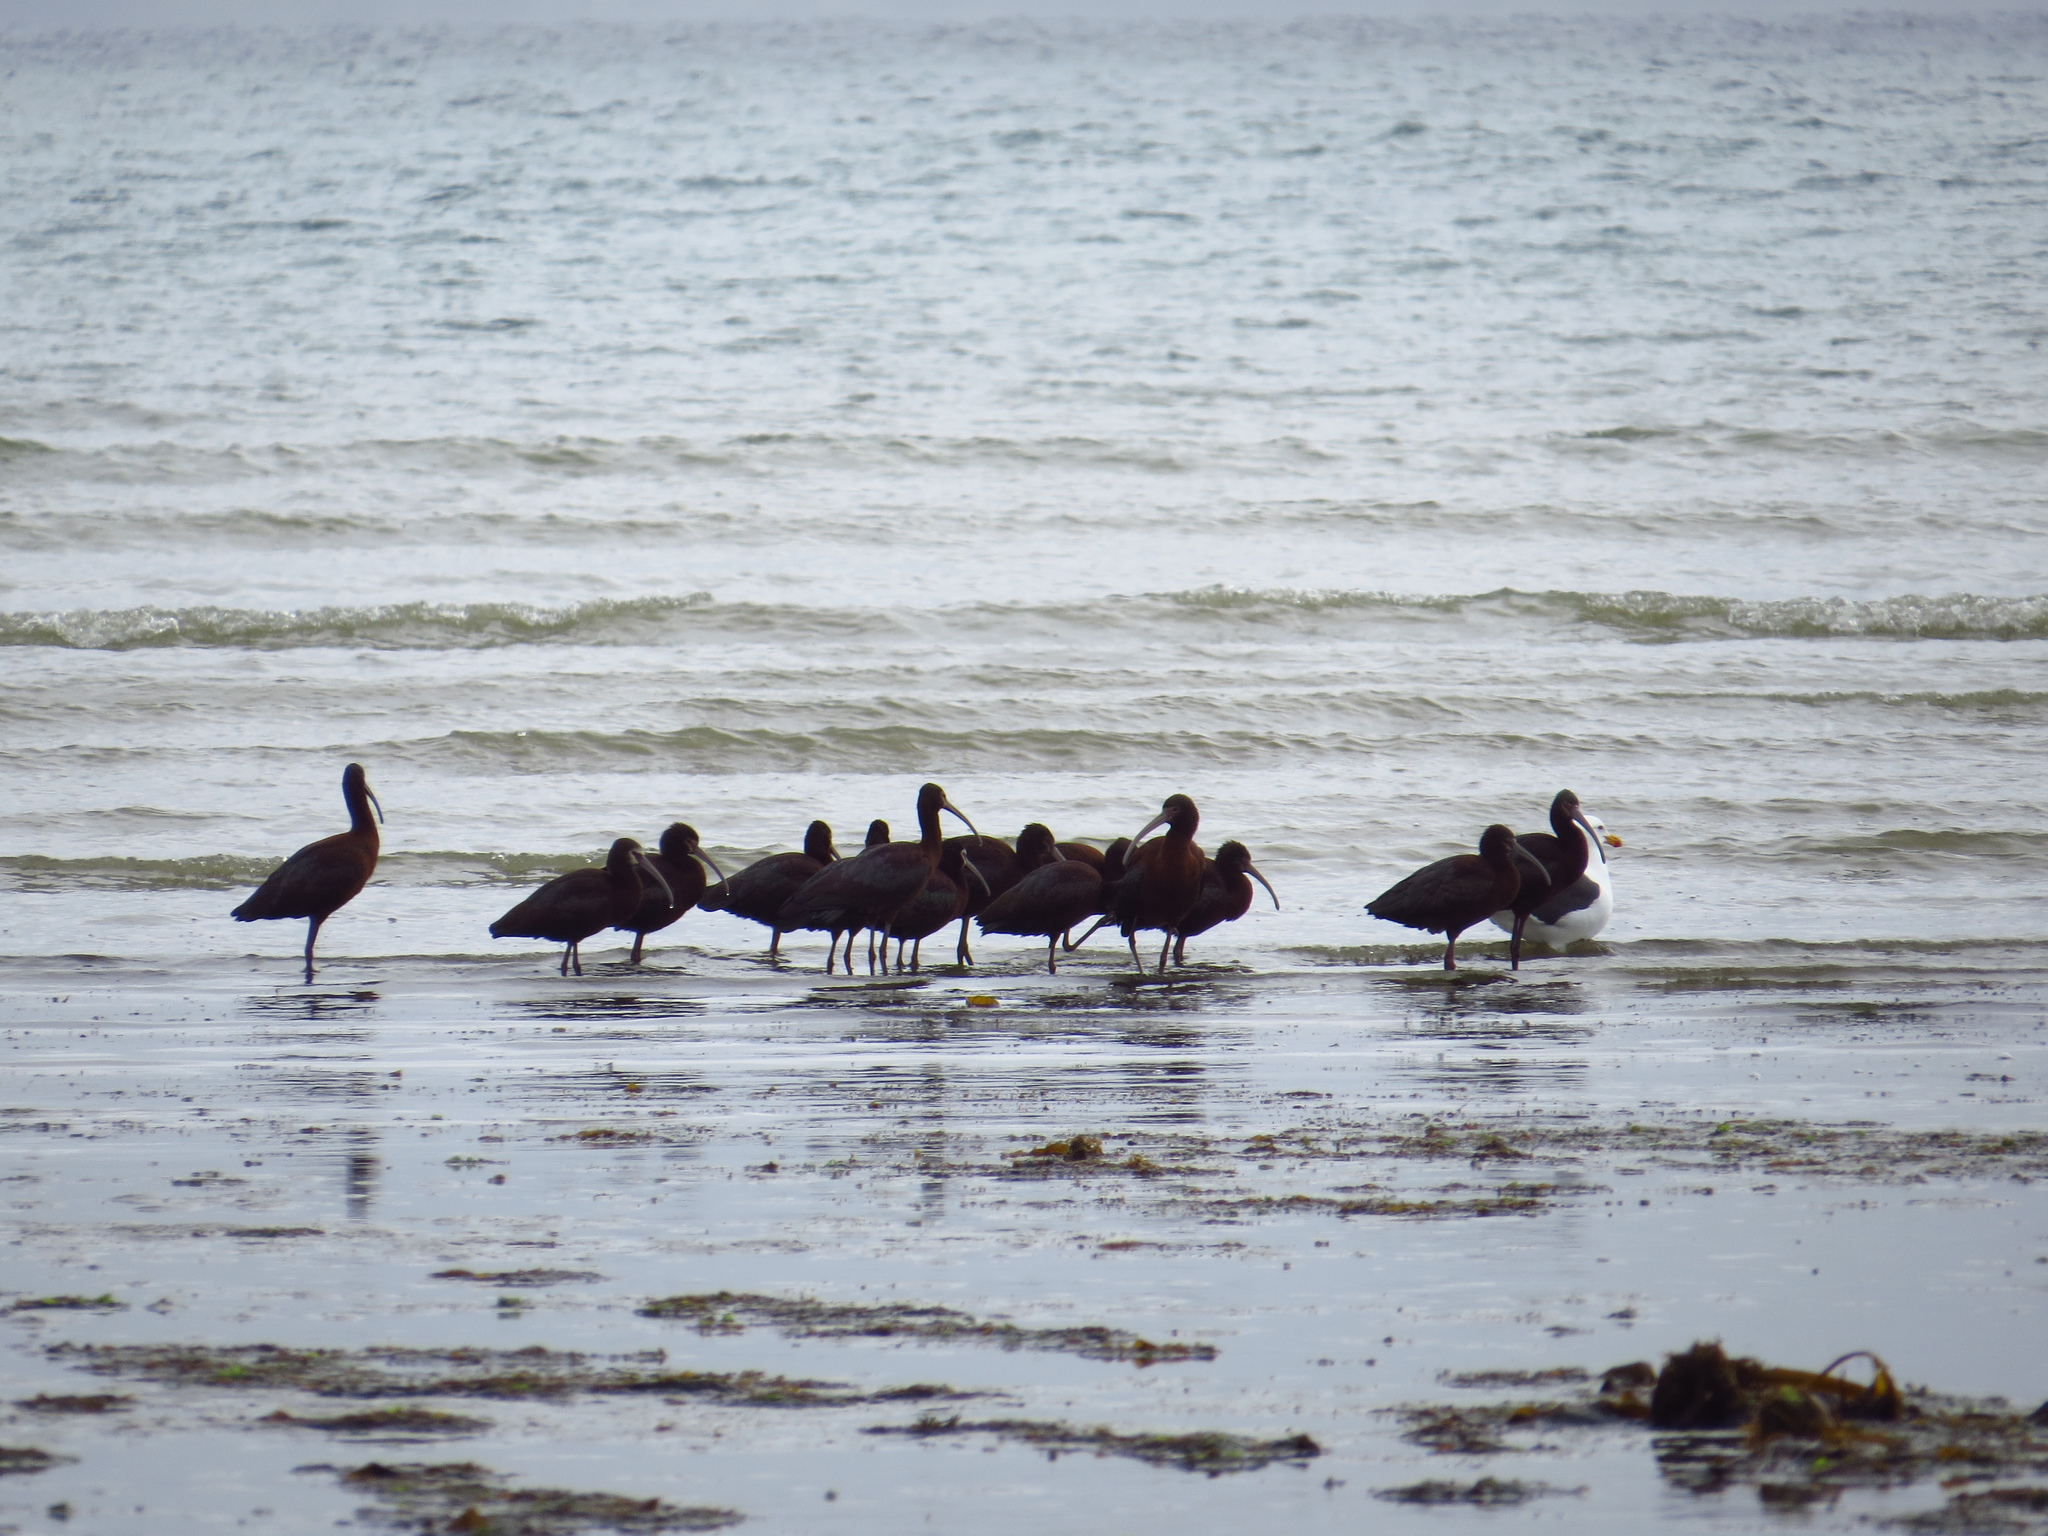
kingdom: Animalia
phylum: Chordata
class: Aves
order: Pelecaniformes
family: Threskiornithidae
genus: Plegadis
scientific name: Plegadis chihi
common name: White-faced ibis
